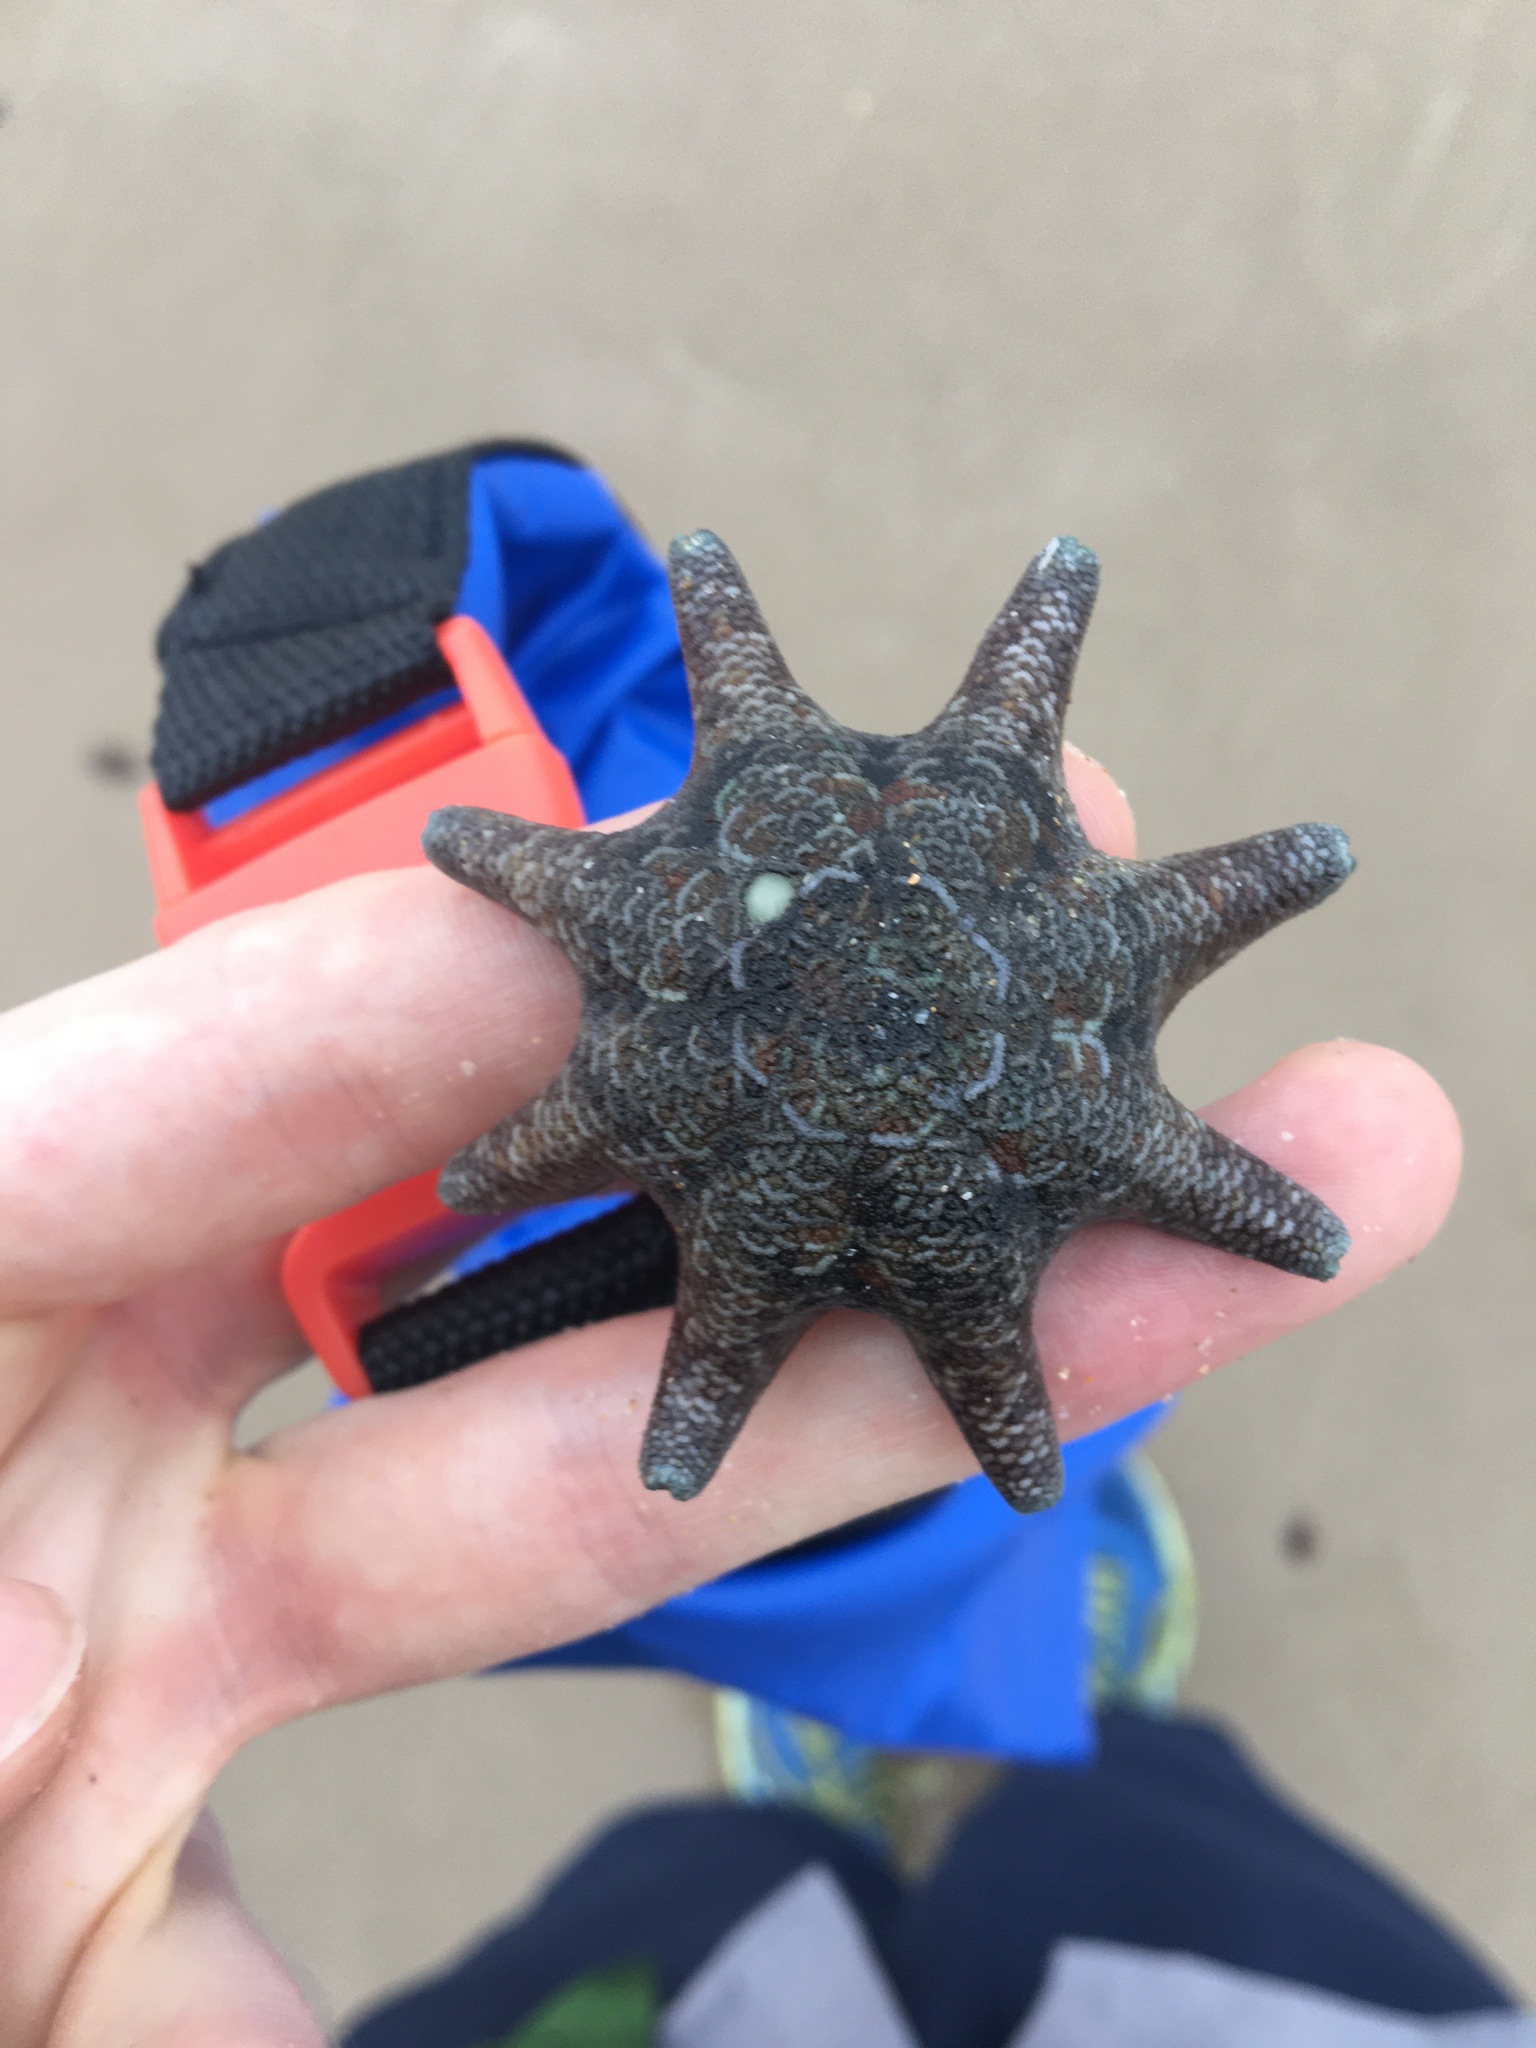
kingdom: Animalia
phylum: Echinodermata
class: Asteroidea
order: Valvatida
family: Asterinidae
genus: Meridiastra
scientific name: Meridiastra calcar
